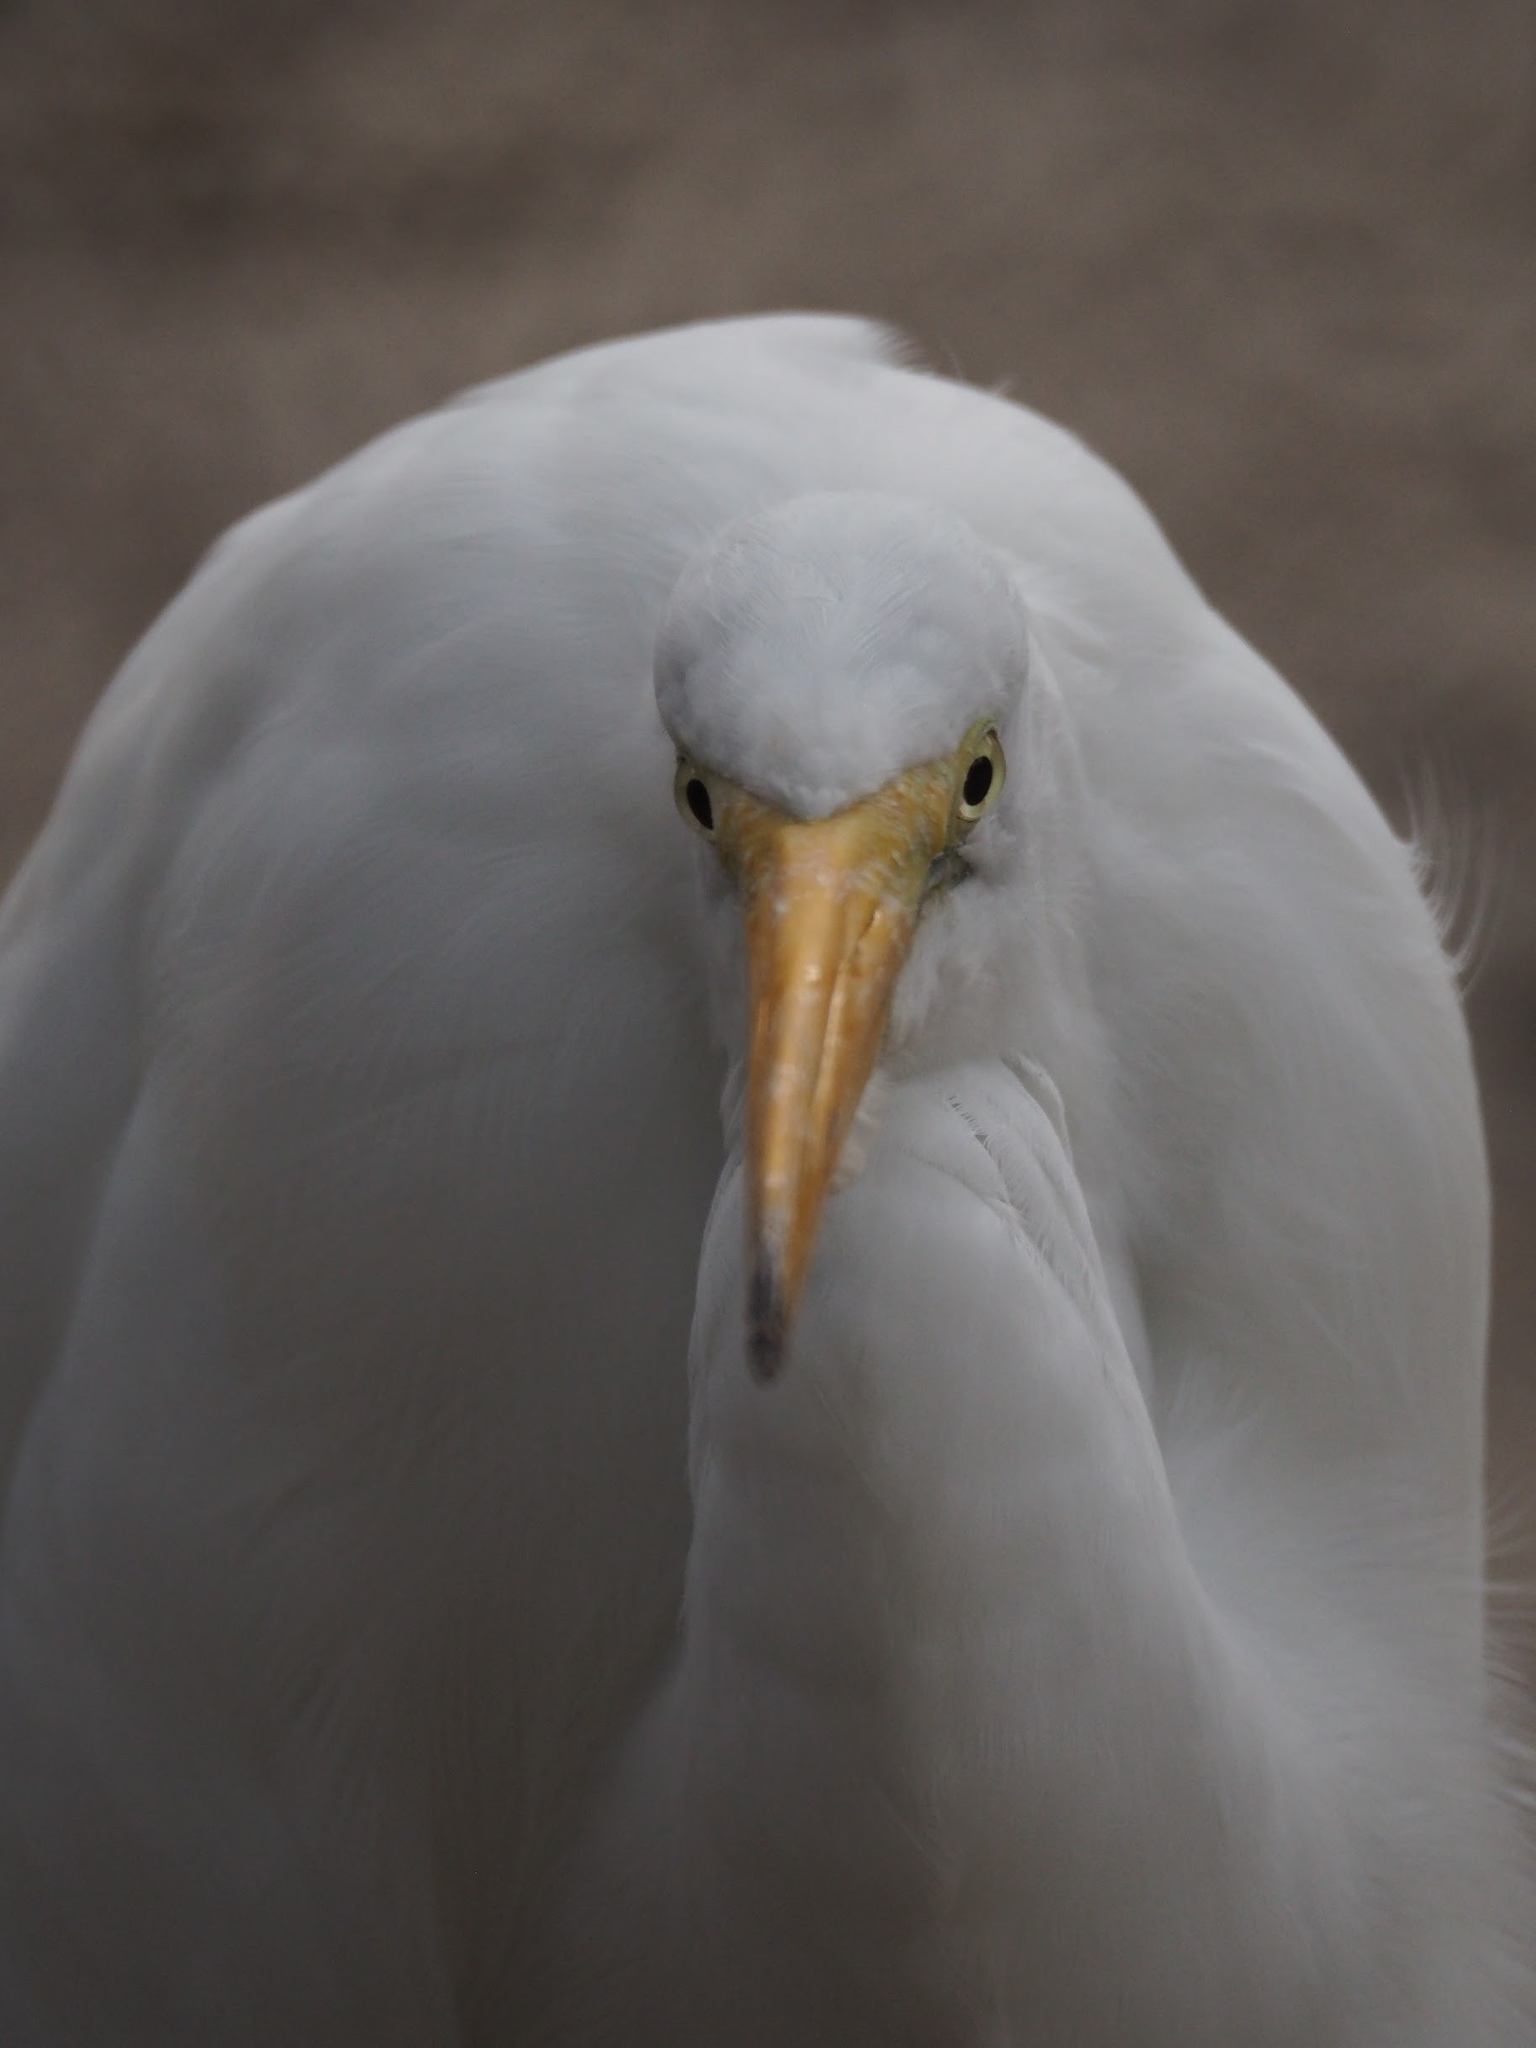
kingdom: Animalia
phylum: Chordata
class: Aves
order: Pelecaniformes
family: Ardeidae
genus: Ardea
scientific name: Ardea alba
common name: Great egret
